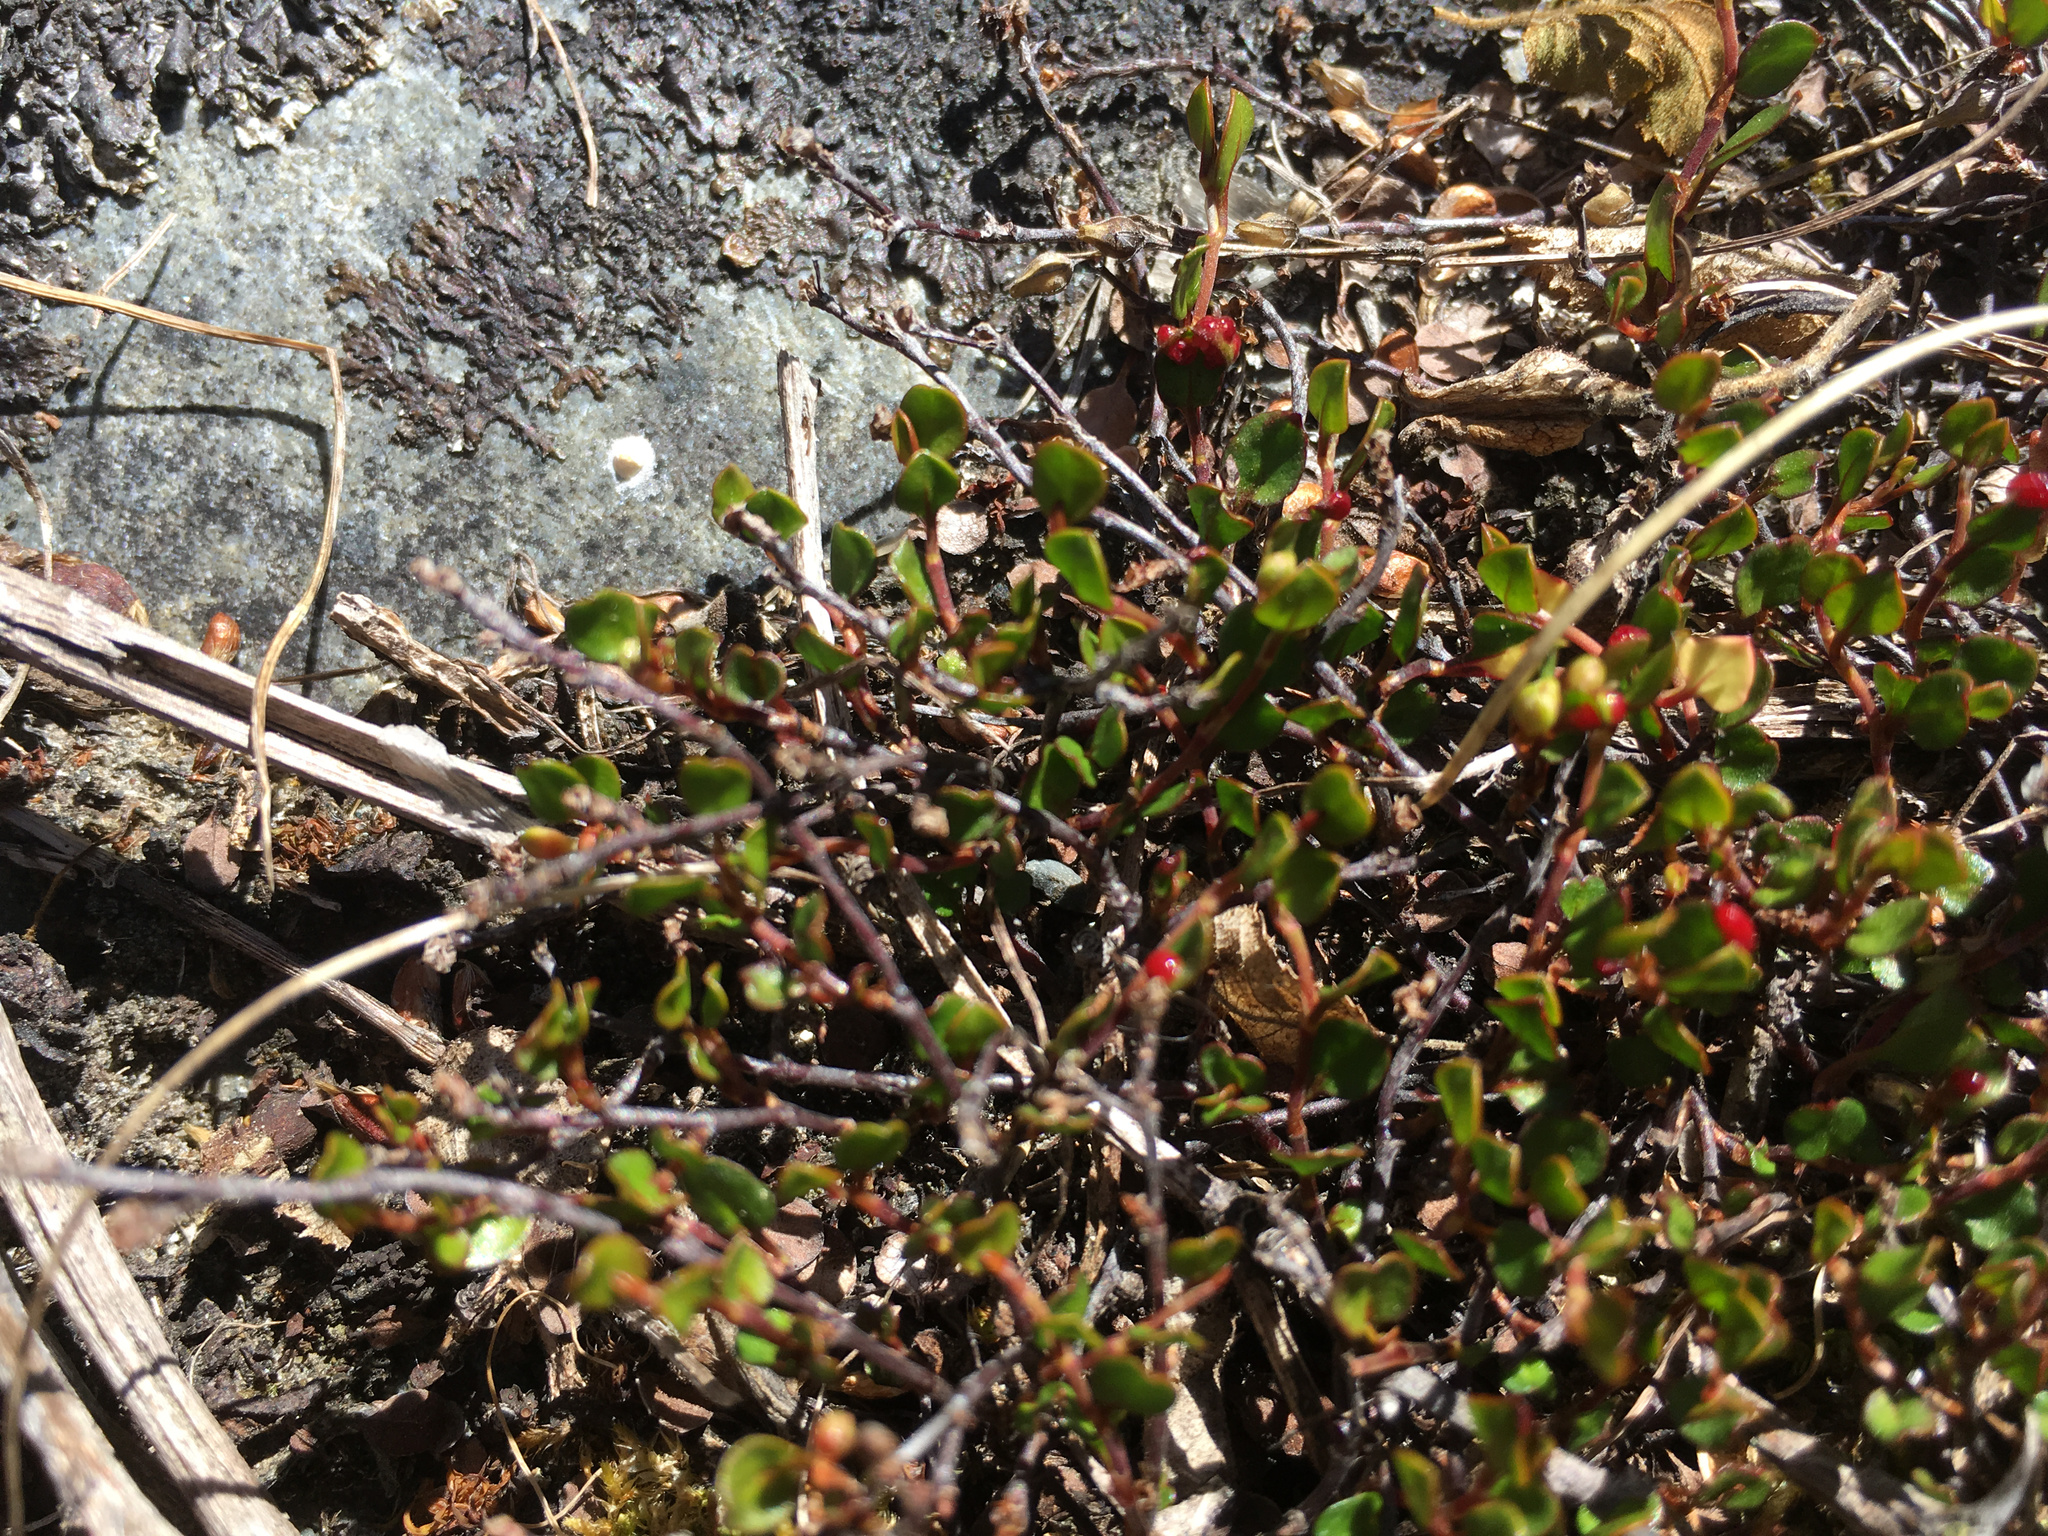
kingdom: Plantae
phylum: Tracheophyta
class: Magnoliopsida
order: Caryophyllales
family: Polygonaceae
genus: Muehlenbeckia
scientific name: Muehlenbeckia axillaris
